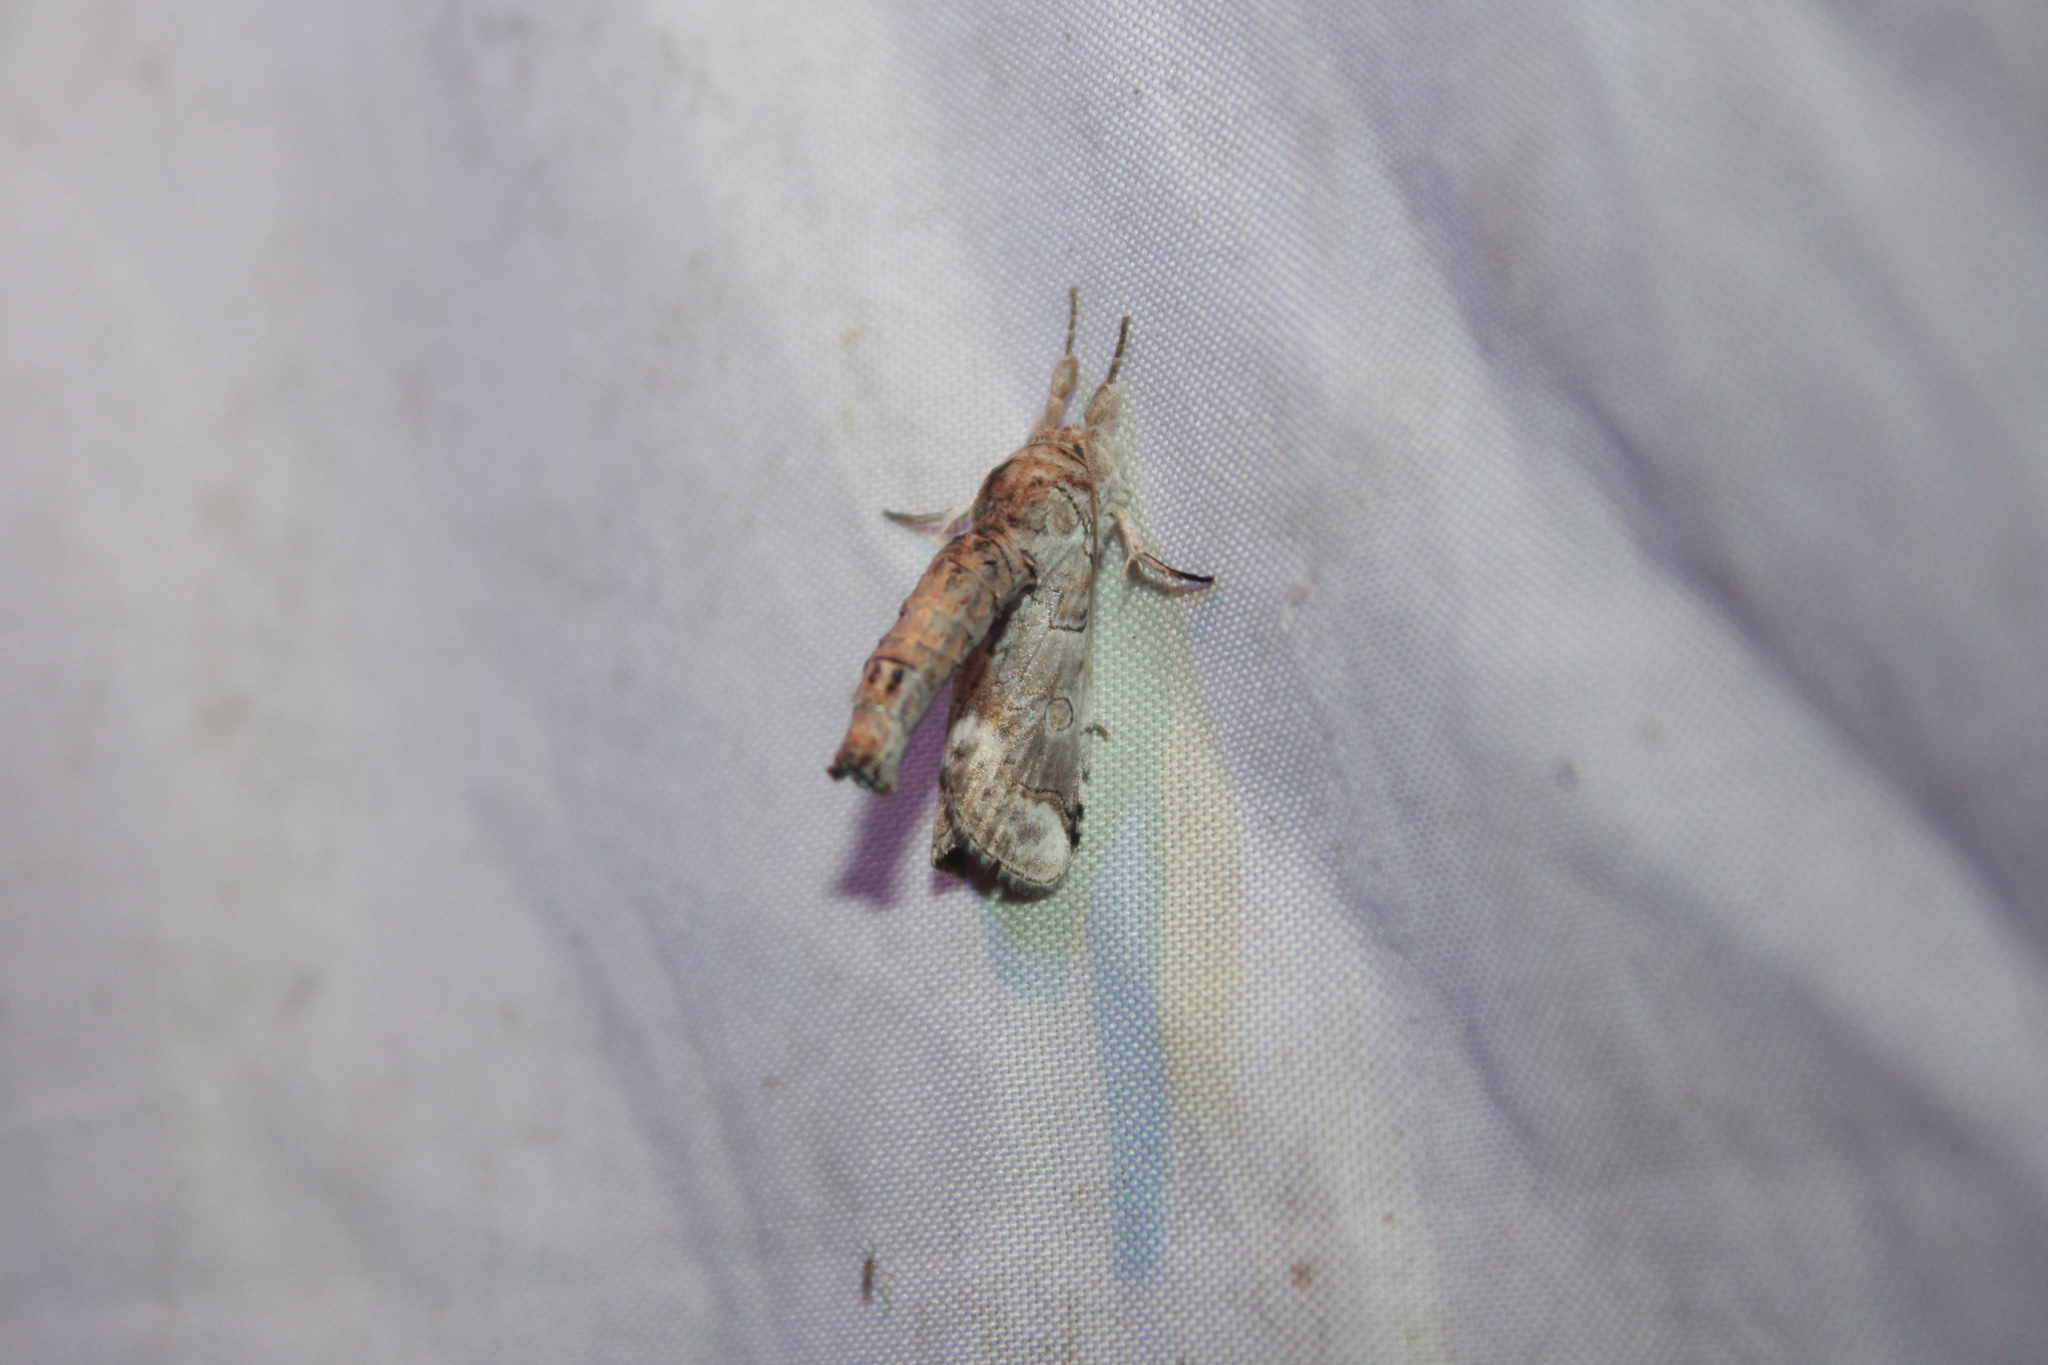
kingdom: Animalia
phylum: Arthropoda
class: Insecta
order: Lepidoptera
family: Nolidae
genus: Motya
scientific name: Motya
